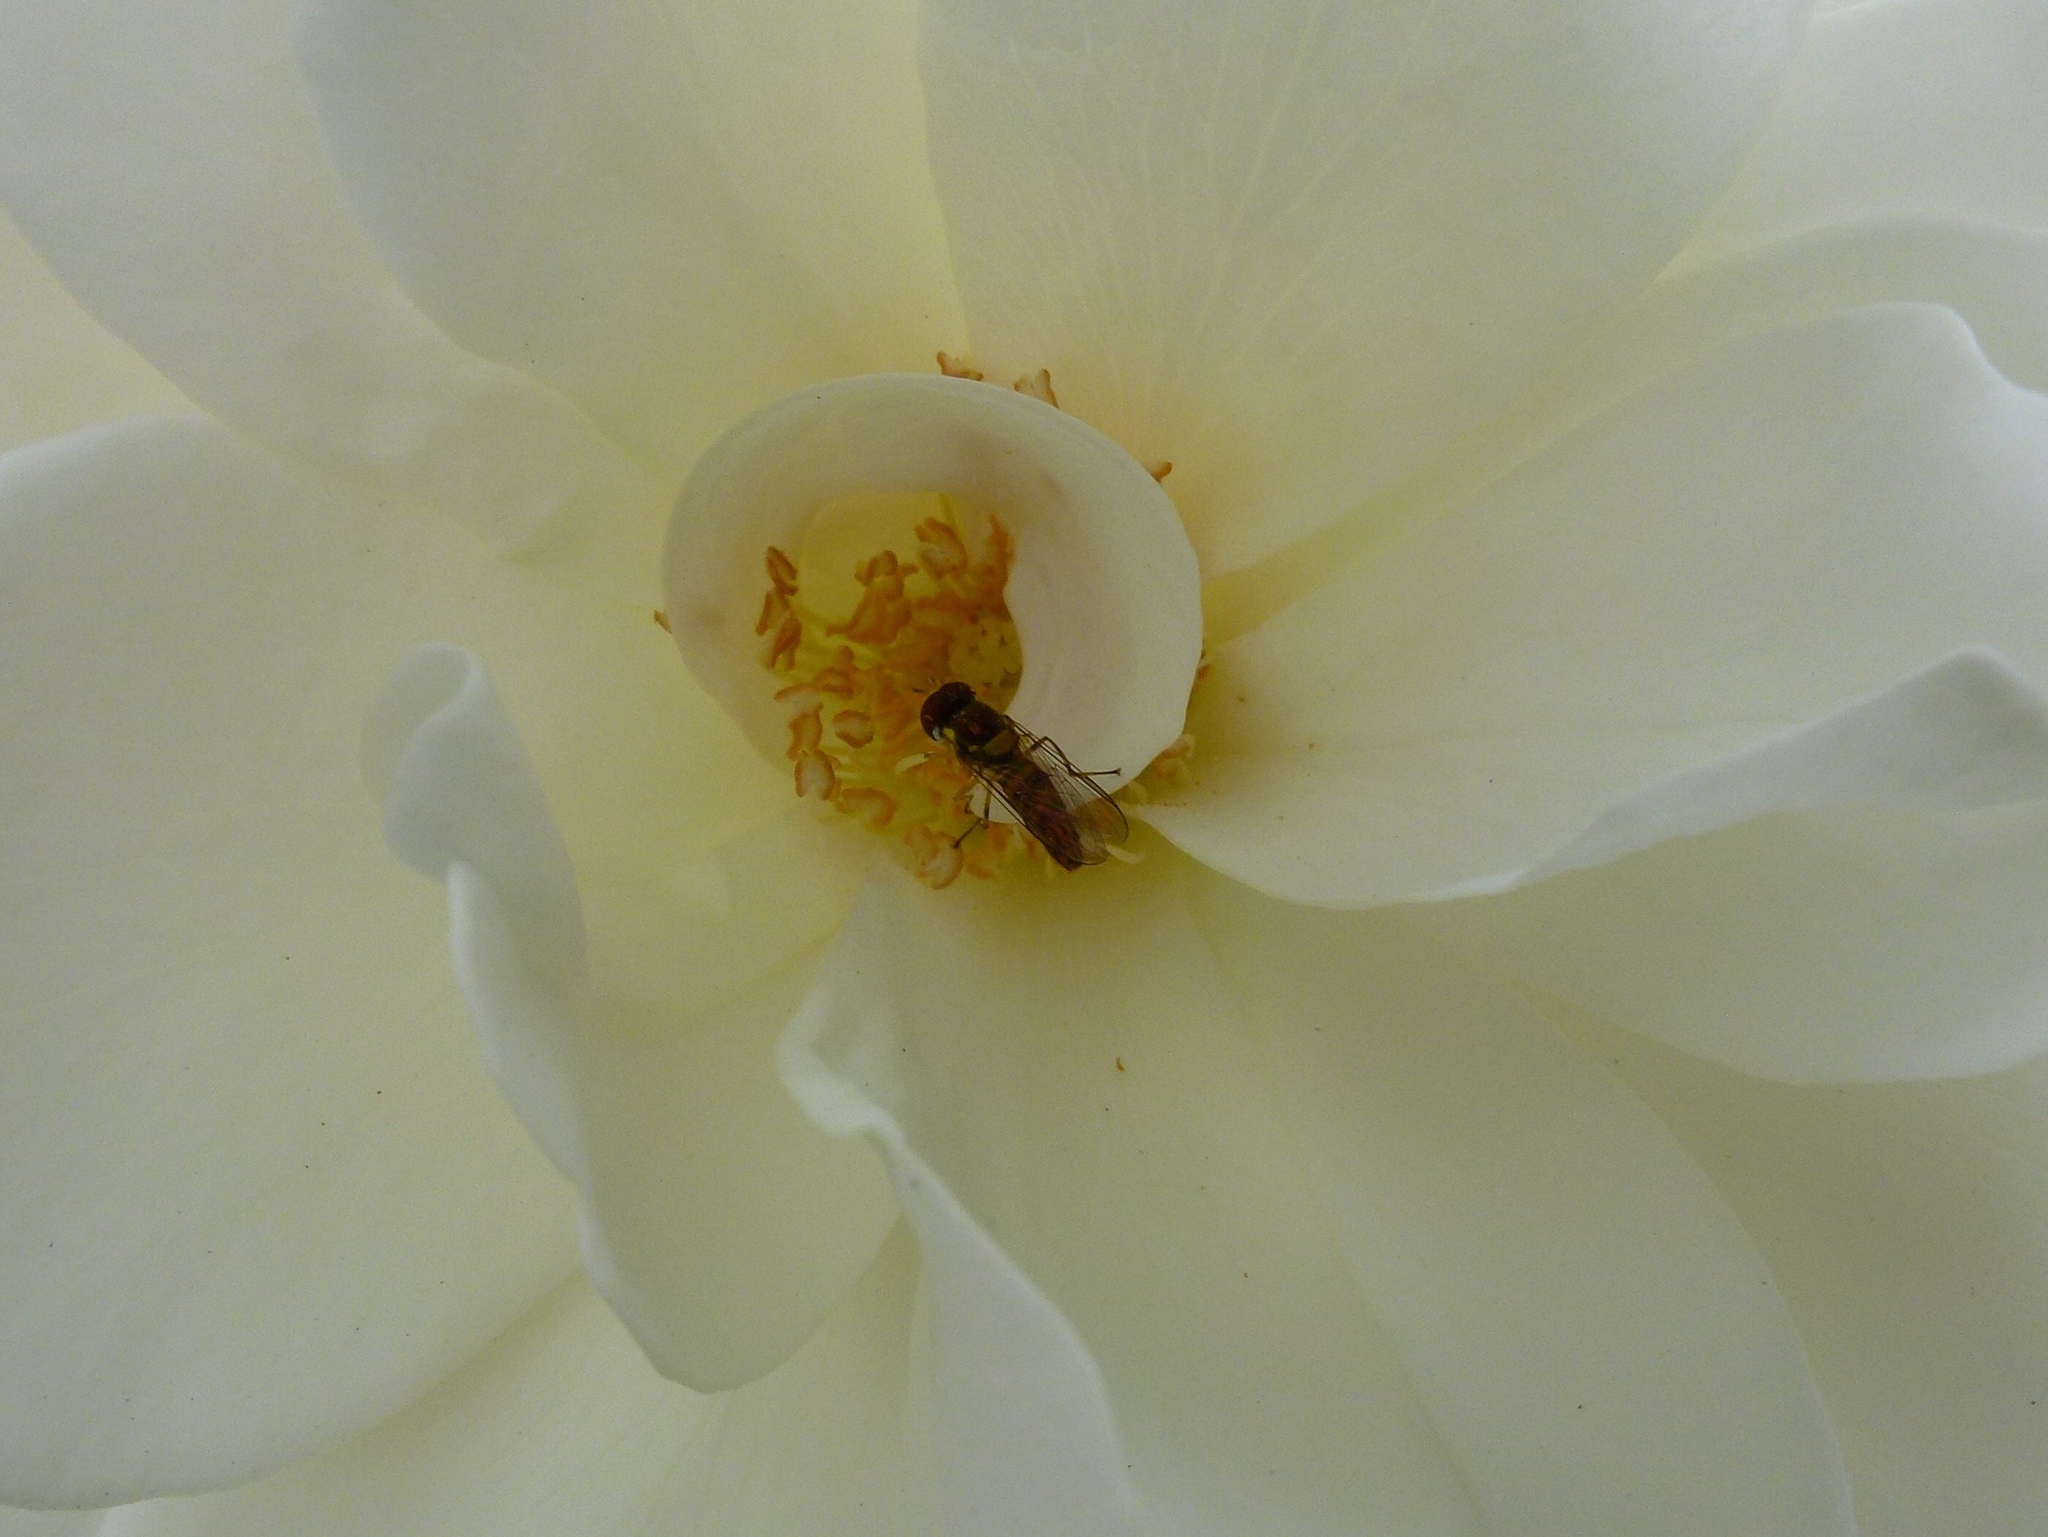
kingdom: Animalia
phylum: Arthropoda
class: Insecta
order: Diptera
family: Syrphidae
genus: Allograpta
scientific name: Allograpta obliqua
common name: Common oblique syrphid
